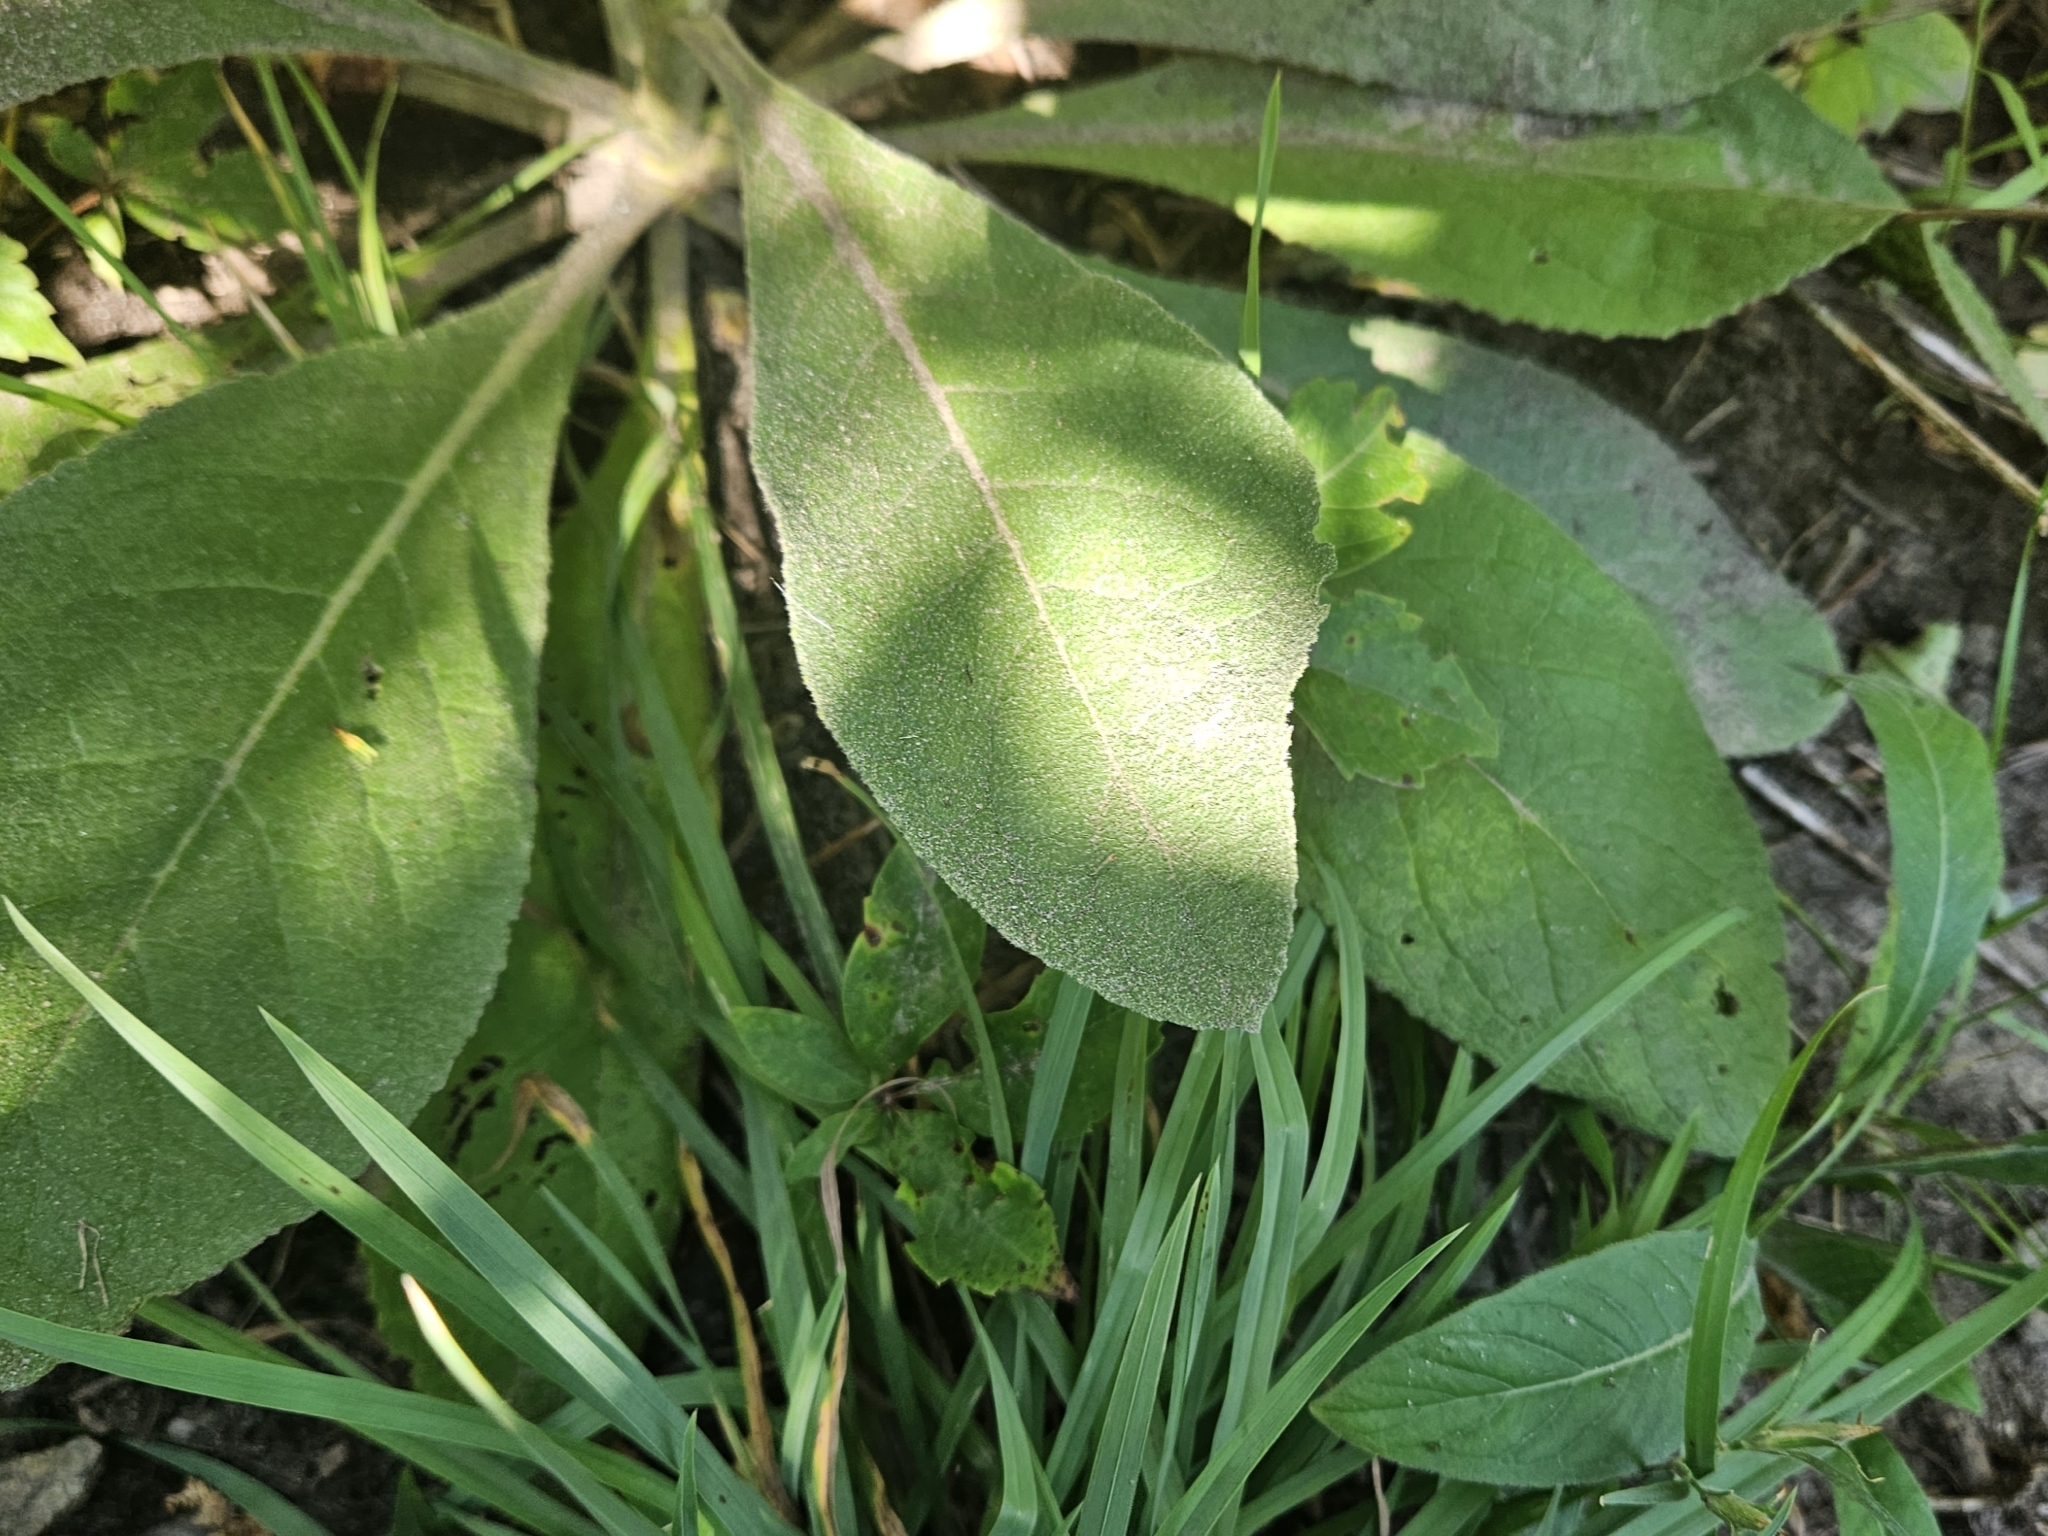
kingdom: Plantae
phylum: Tracheophyta
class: Magnoliopsida
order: Lamiales
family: Scrophulariaceae
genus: Verbascum
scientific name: Verbascum thapsus
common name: Common mullein
